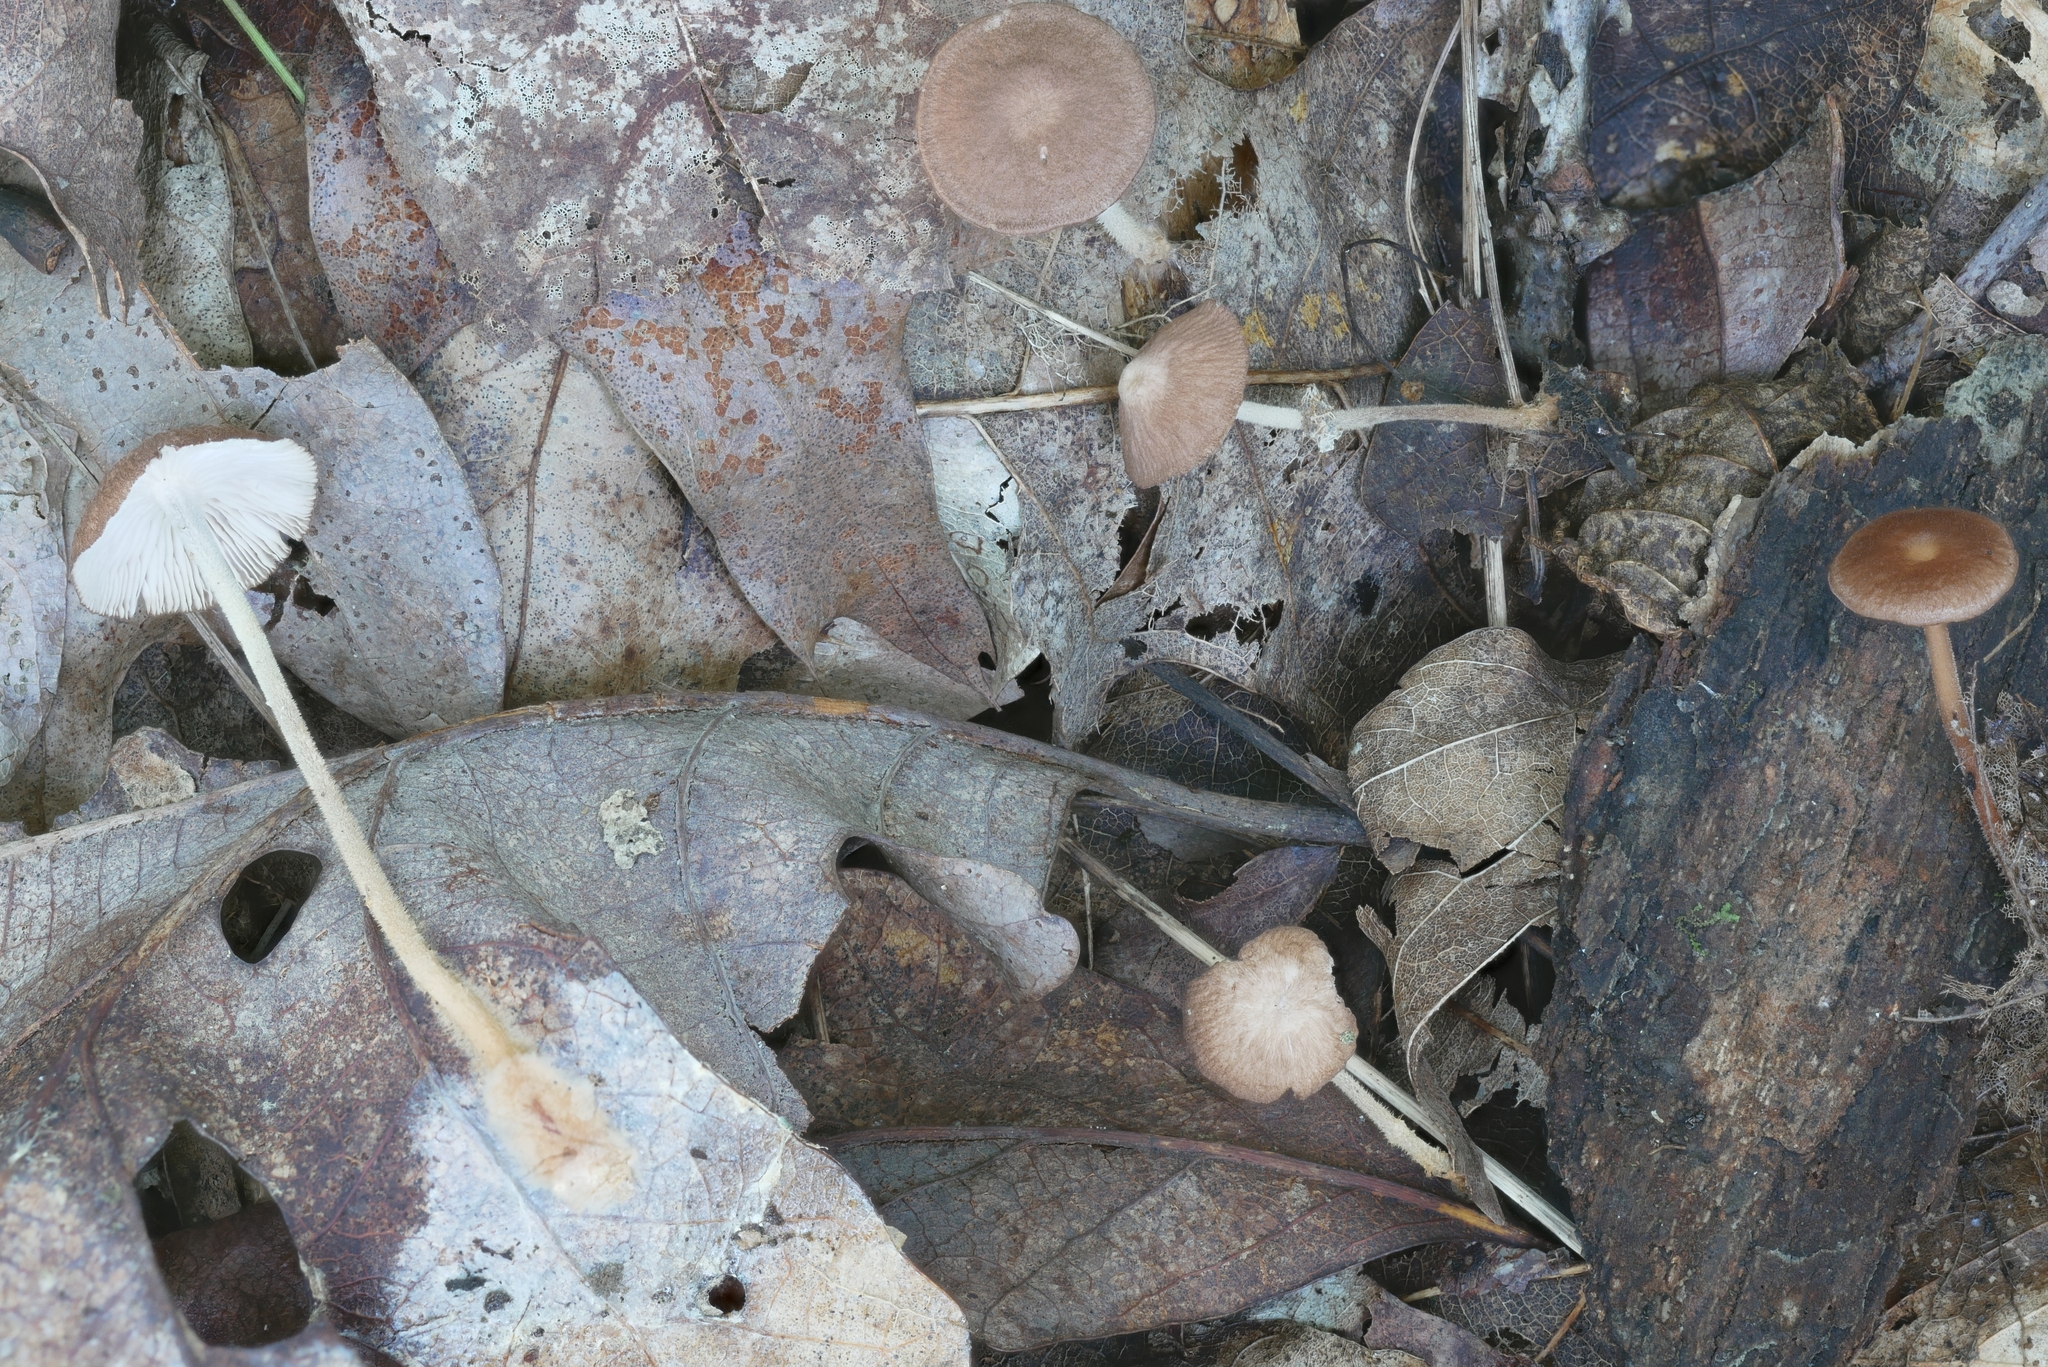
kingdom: Fungi
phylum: Basidiomycota
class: Agaricomycetes
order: Agaricales
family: Omphalotaceae
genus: Collybiopsis
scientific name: Collybiopsis biformis
